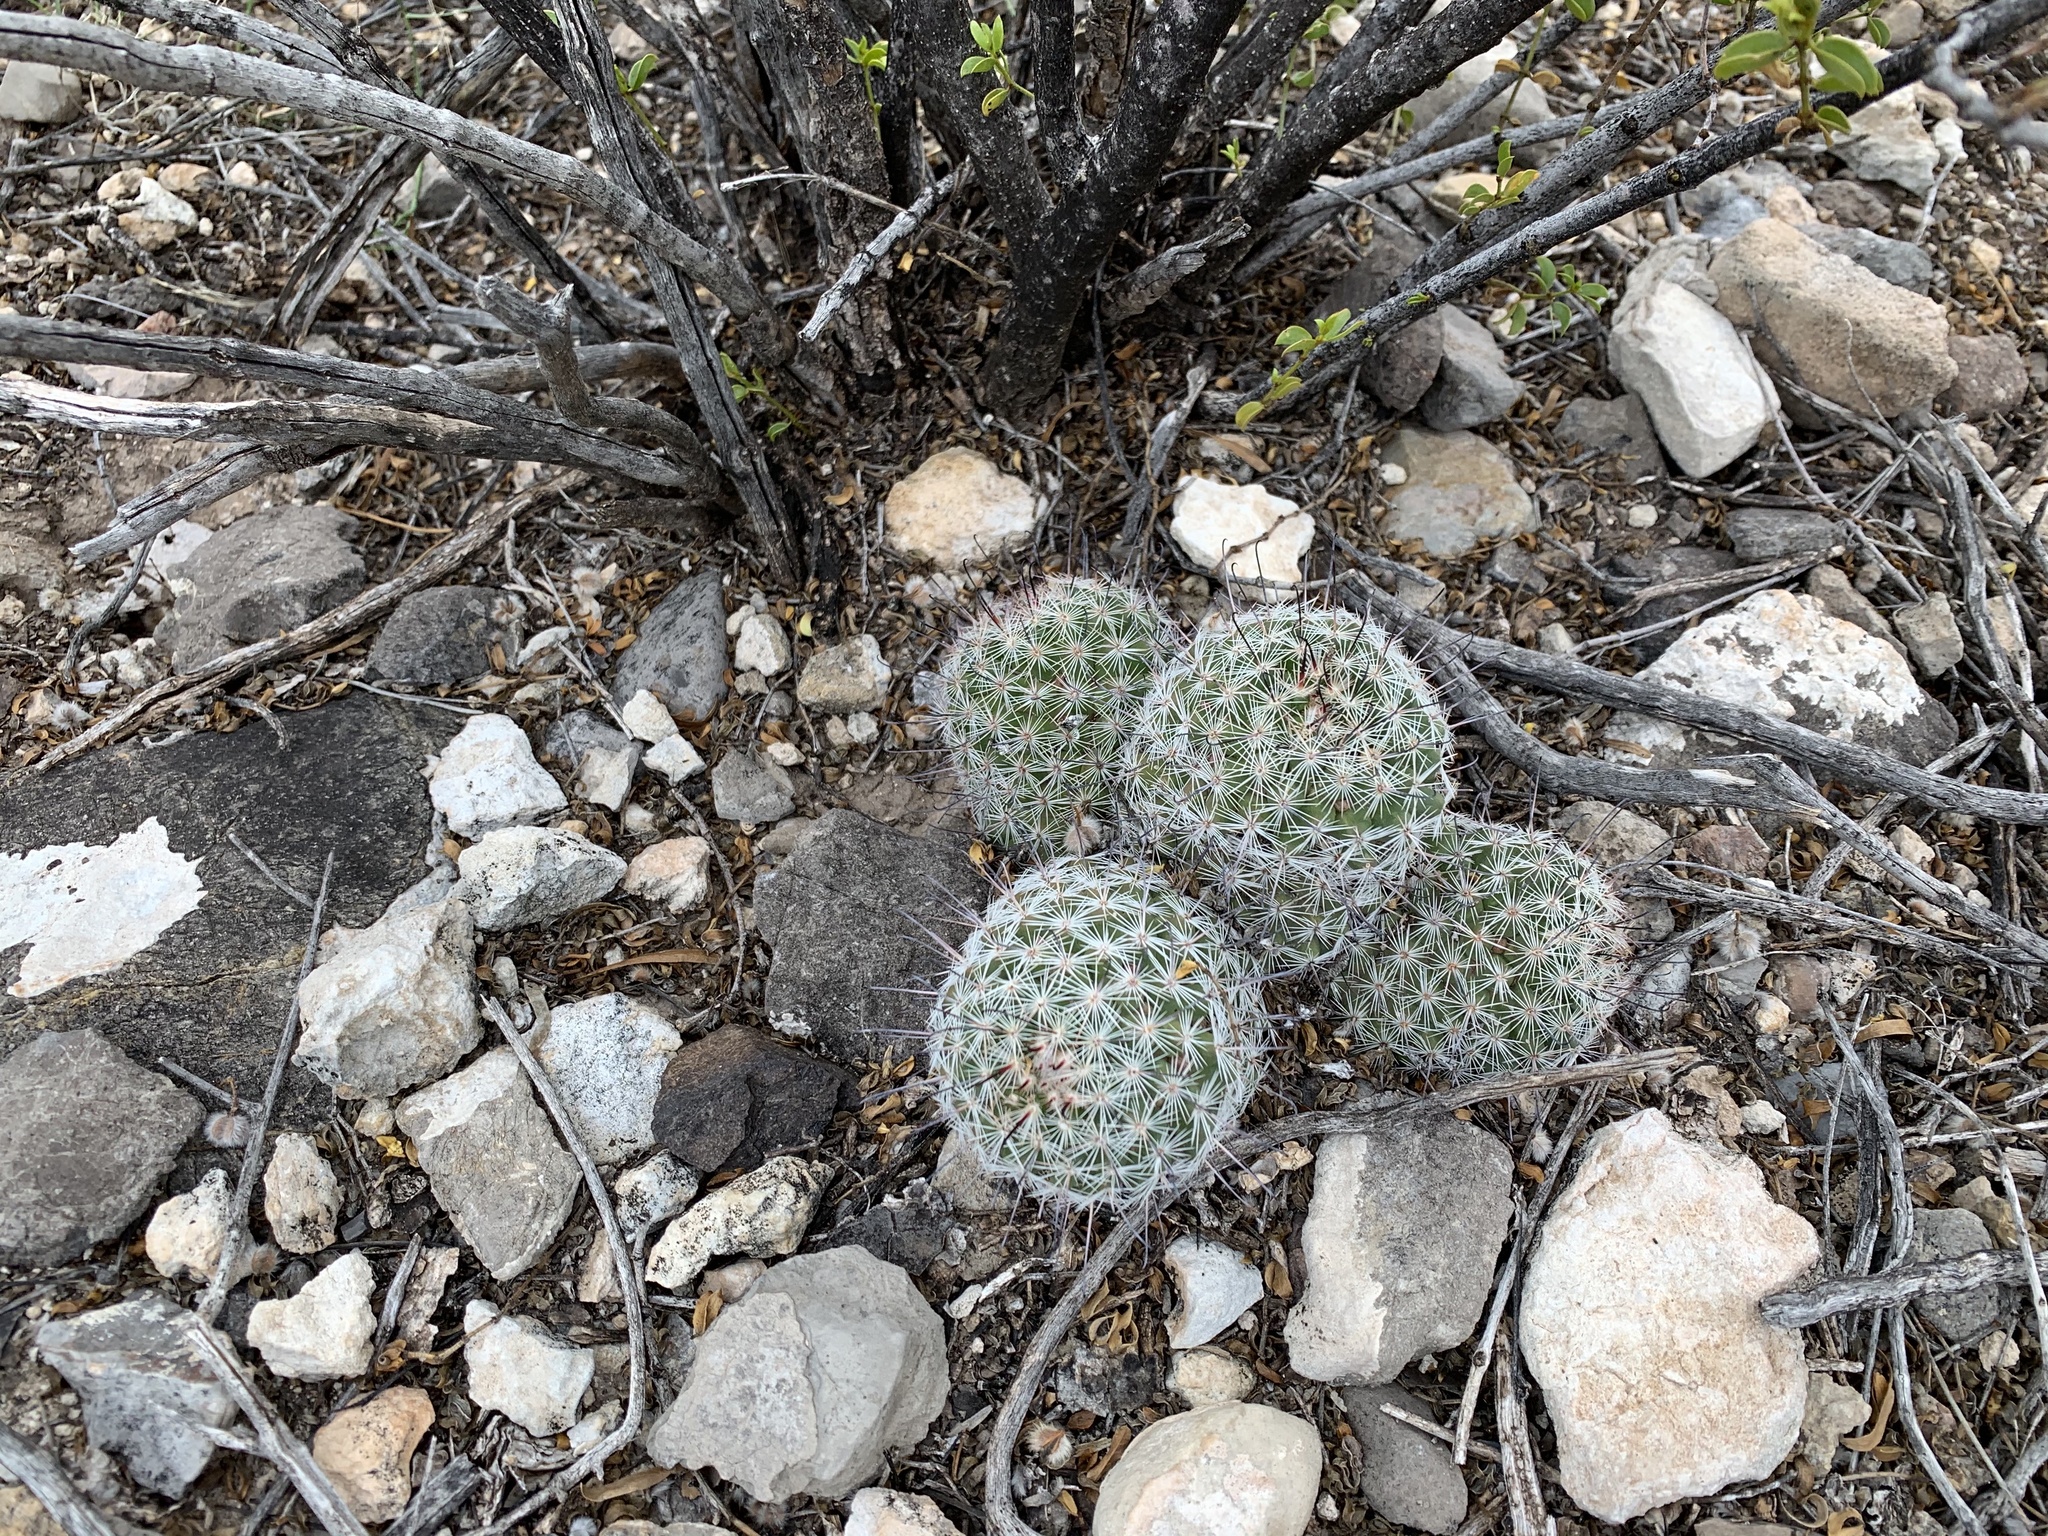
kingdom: Plantae
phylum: Tracheophyta
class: Magnoliopsida
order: Caryophyllales
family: Cactaceae
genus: Cochemiea
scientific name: Cochemiea grahamii
